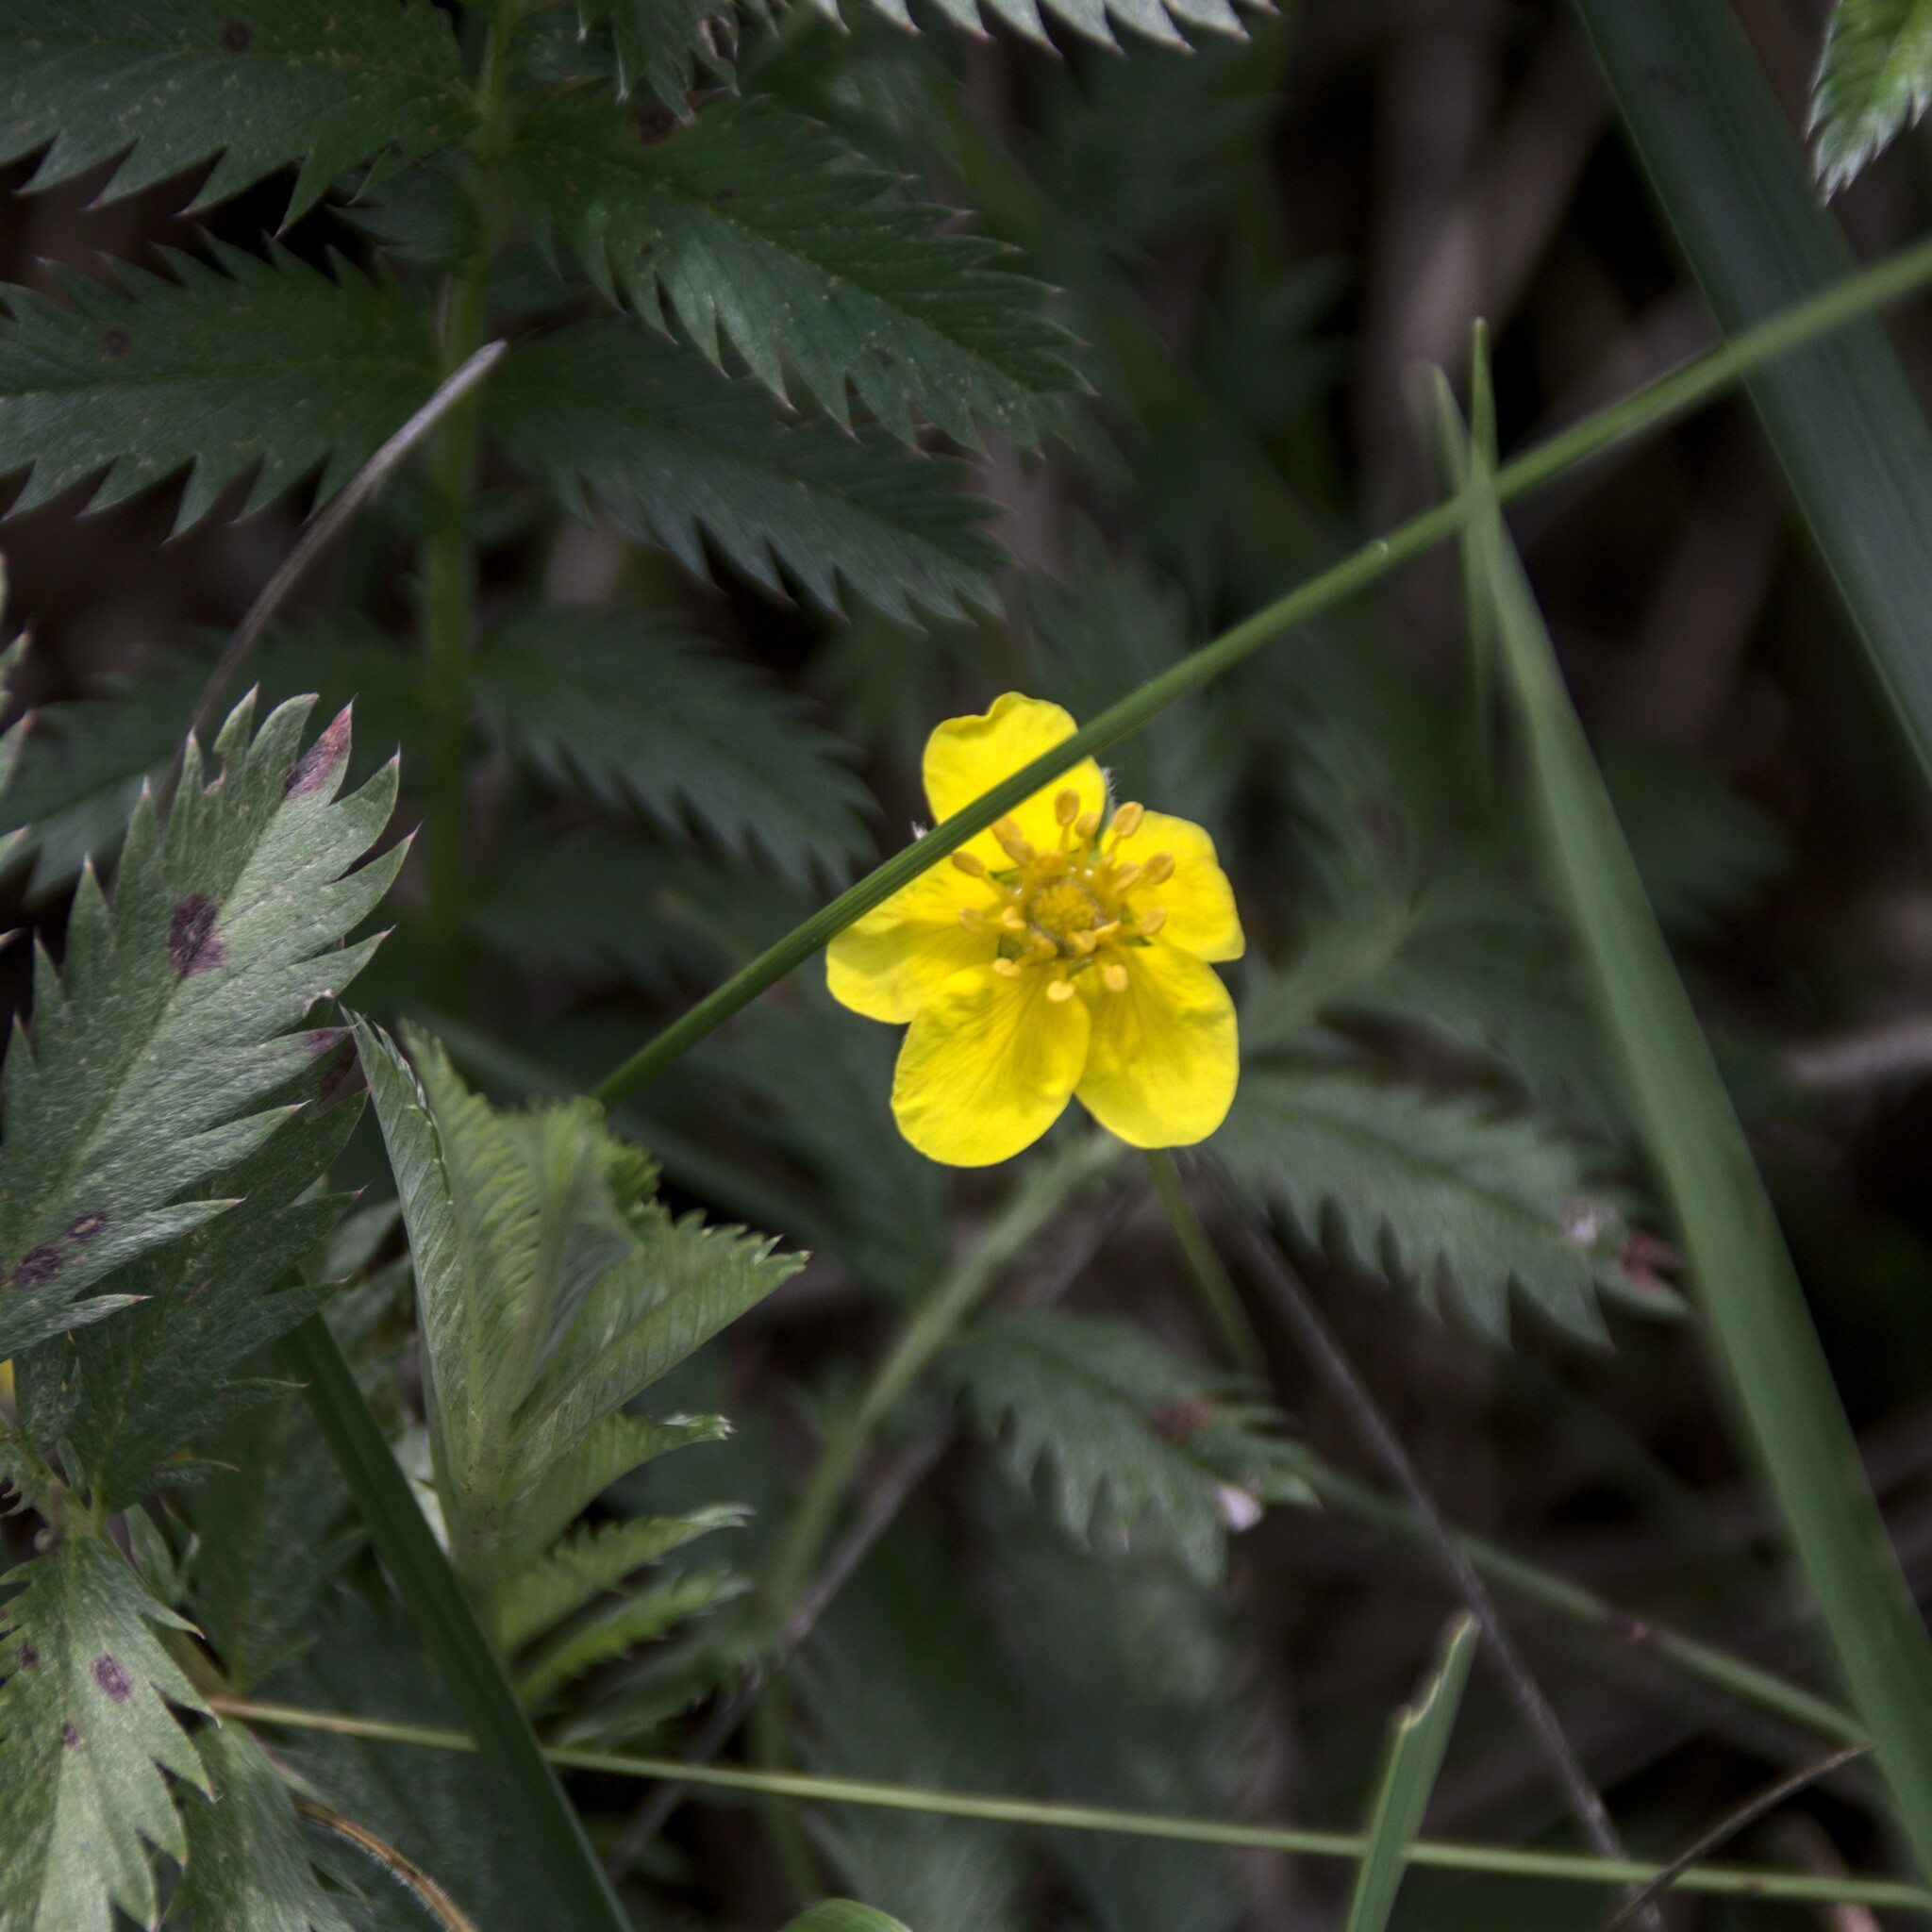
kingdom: Plantae
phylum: Tracheophyta
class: Magnoliopsida
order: Rosales
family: Rosaceae
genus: Argentina
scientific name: Argentina anserina
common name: Common silverweed
